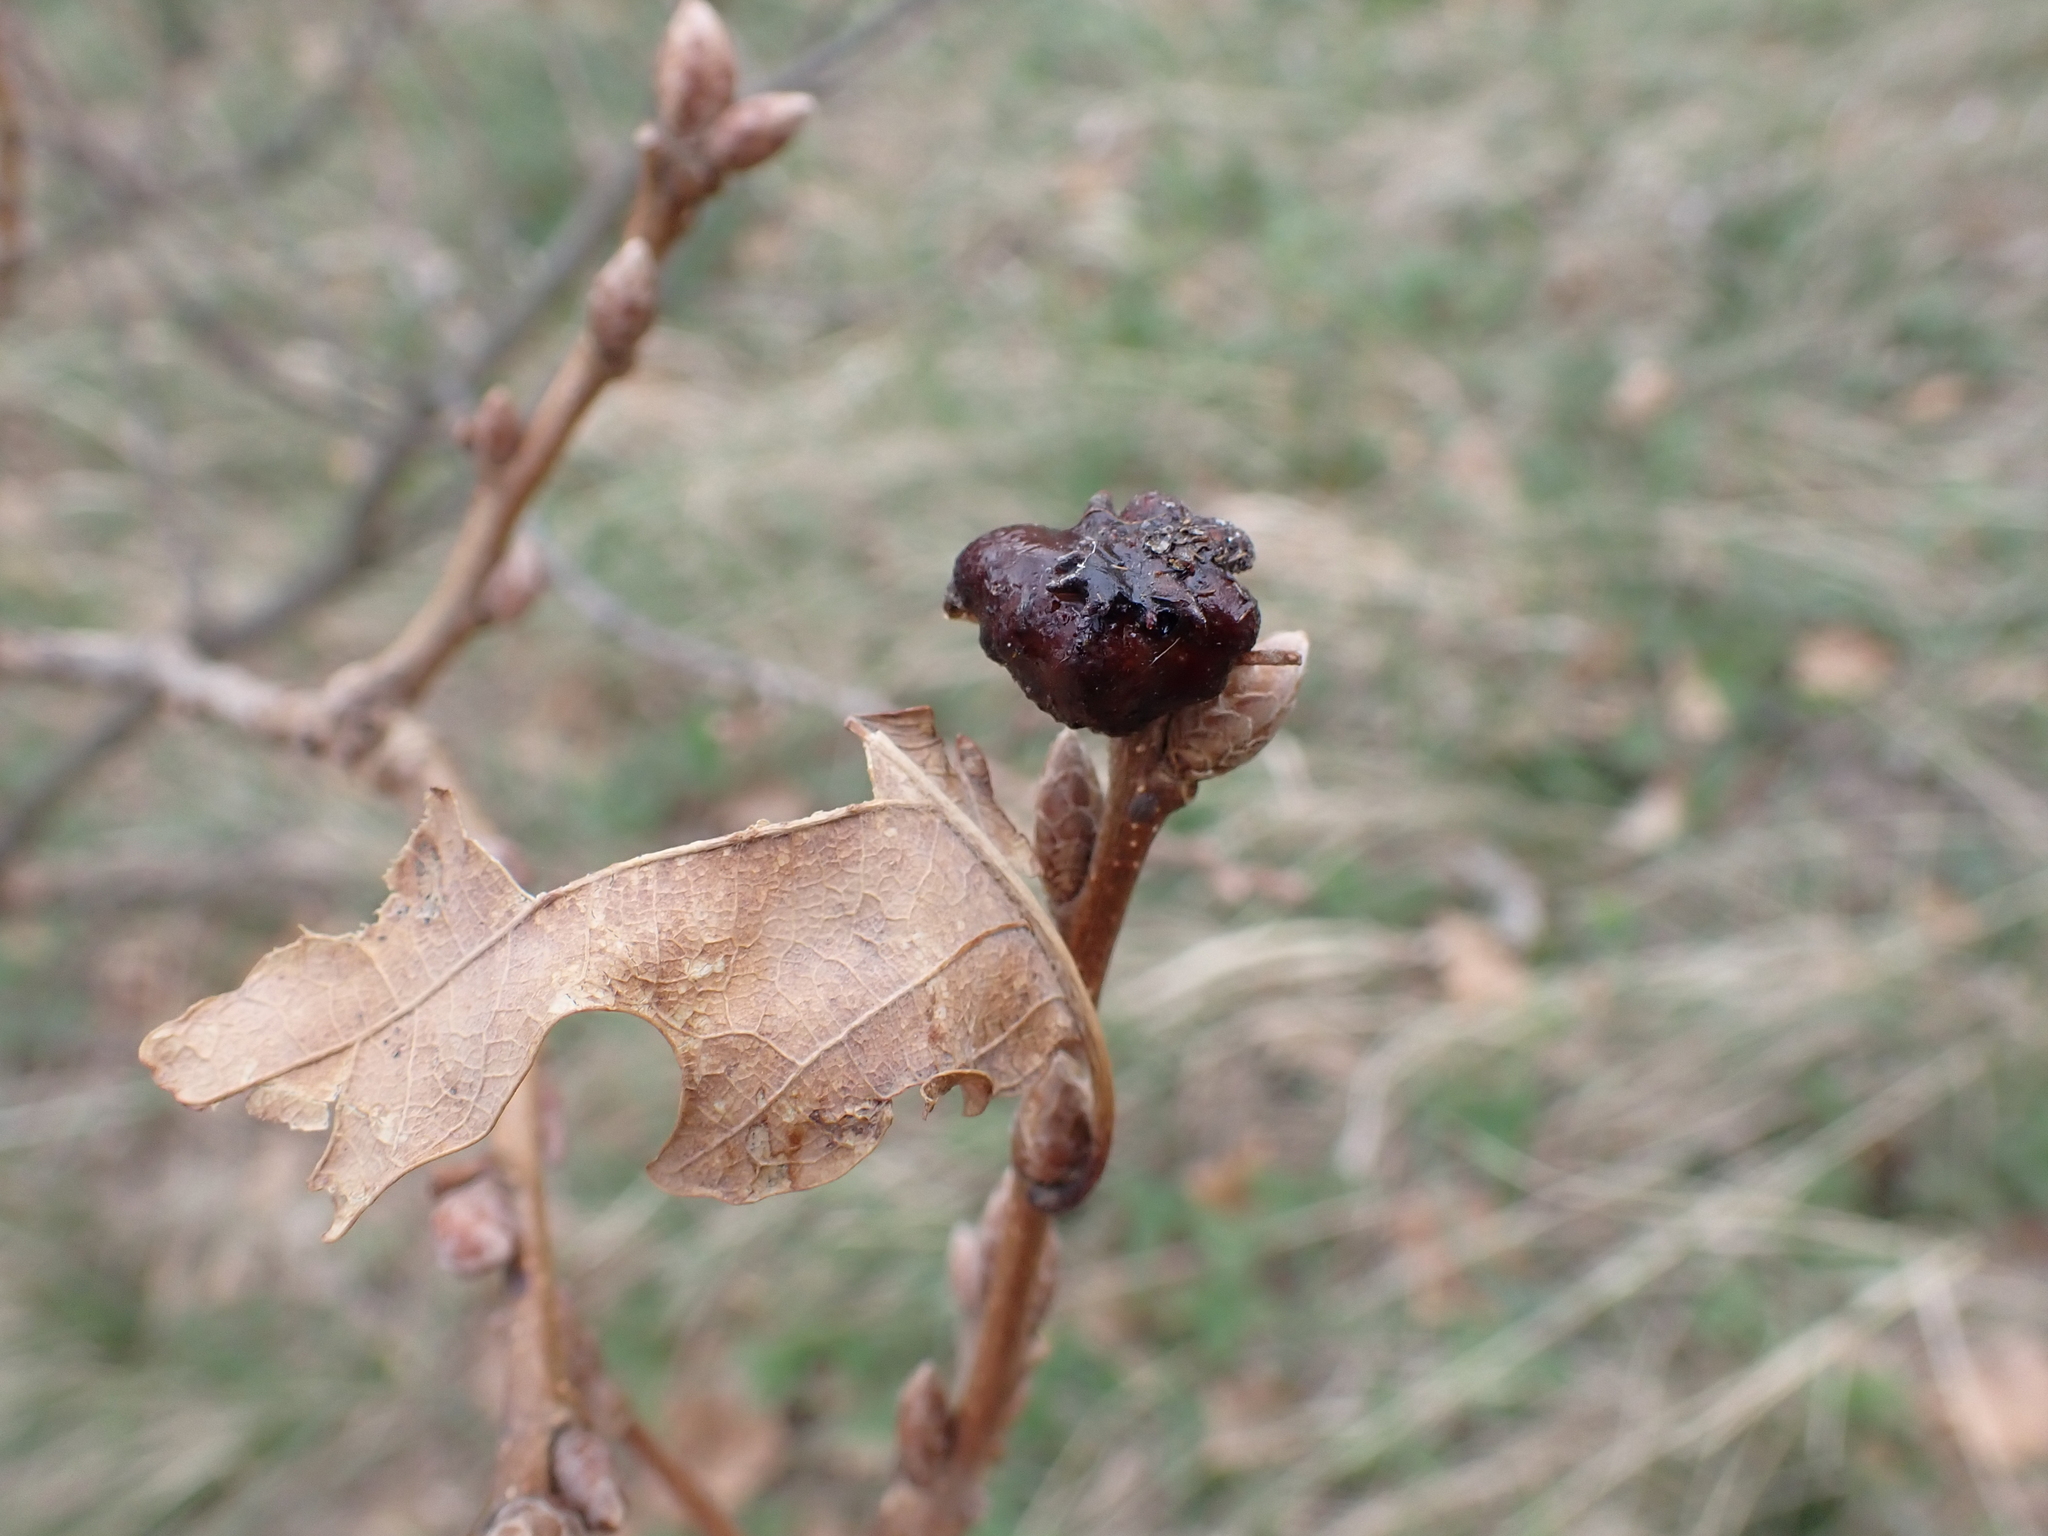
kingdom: Animalia
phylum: Arthropoda
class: Insecta
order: Hymenoptera
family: Cynipidae
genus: Andricus
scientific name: Andricus dentimitratus
